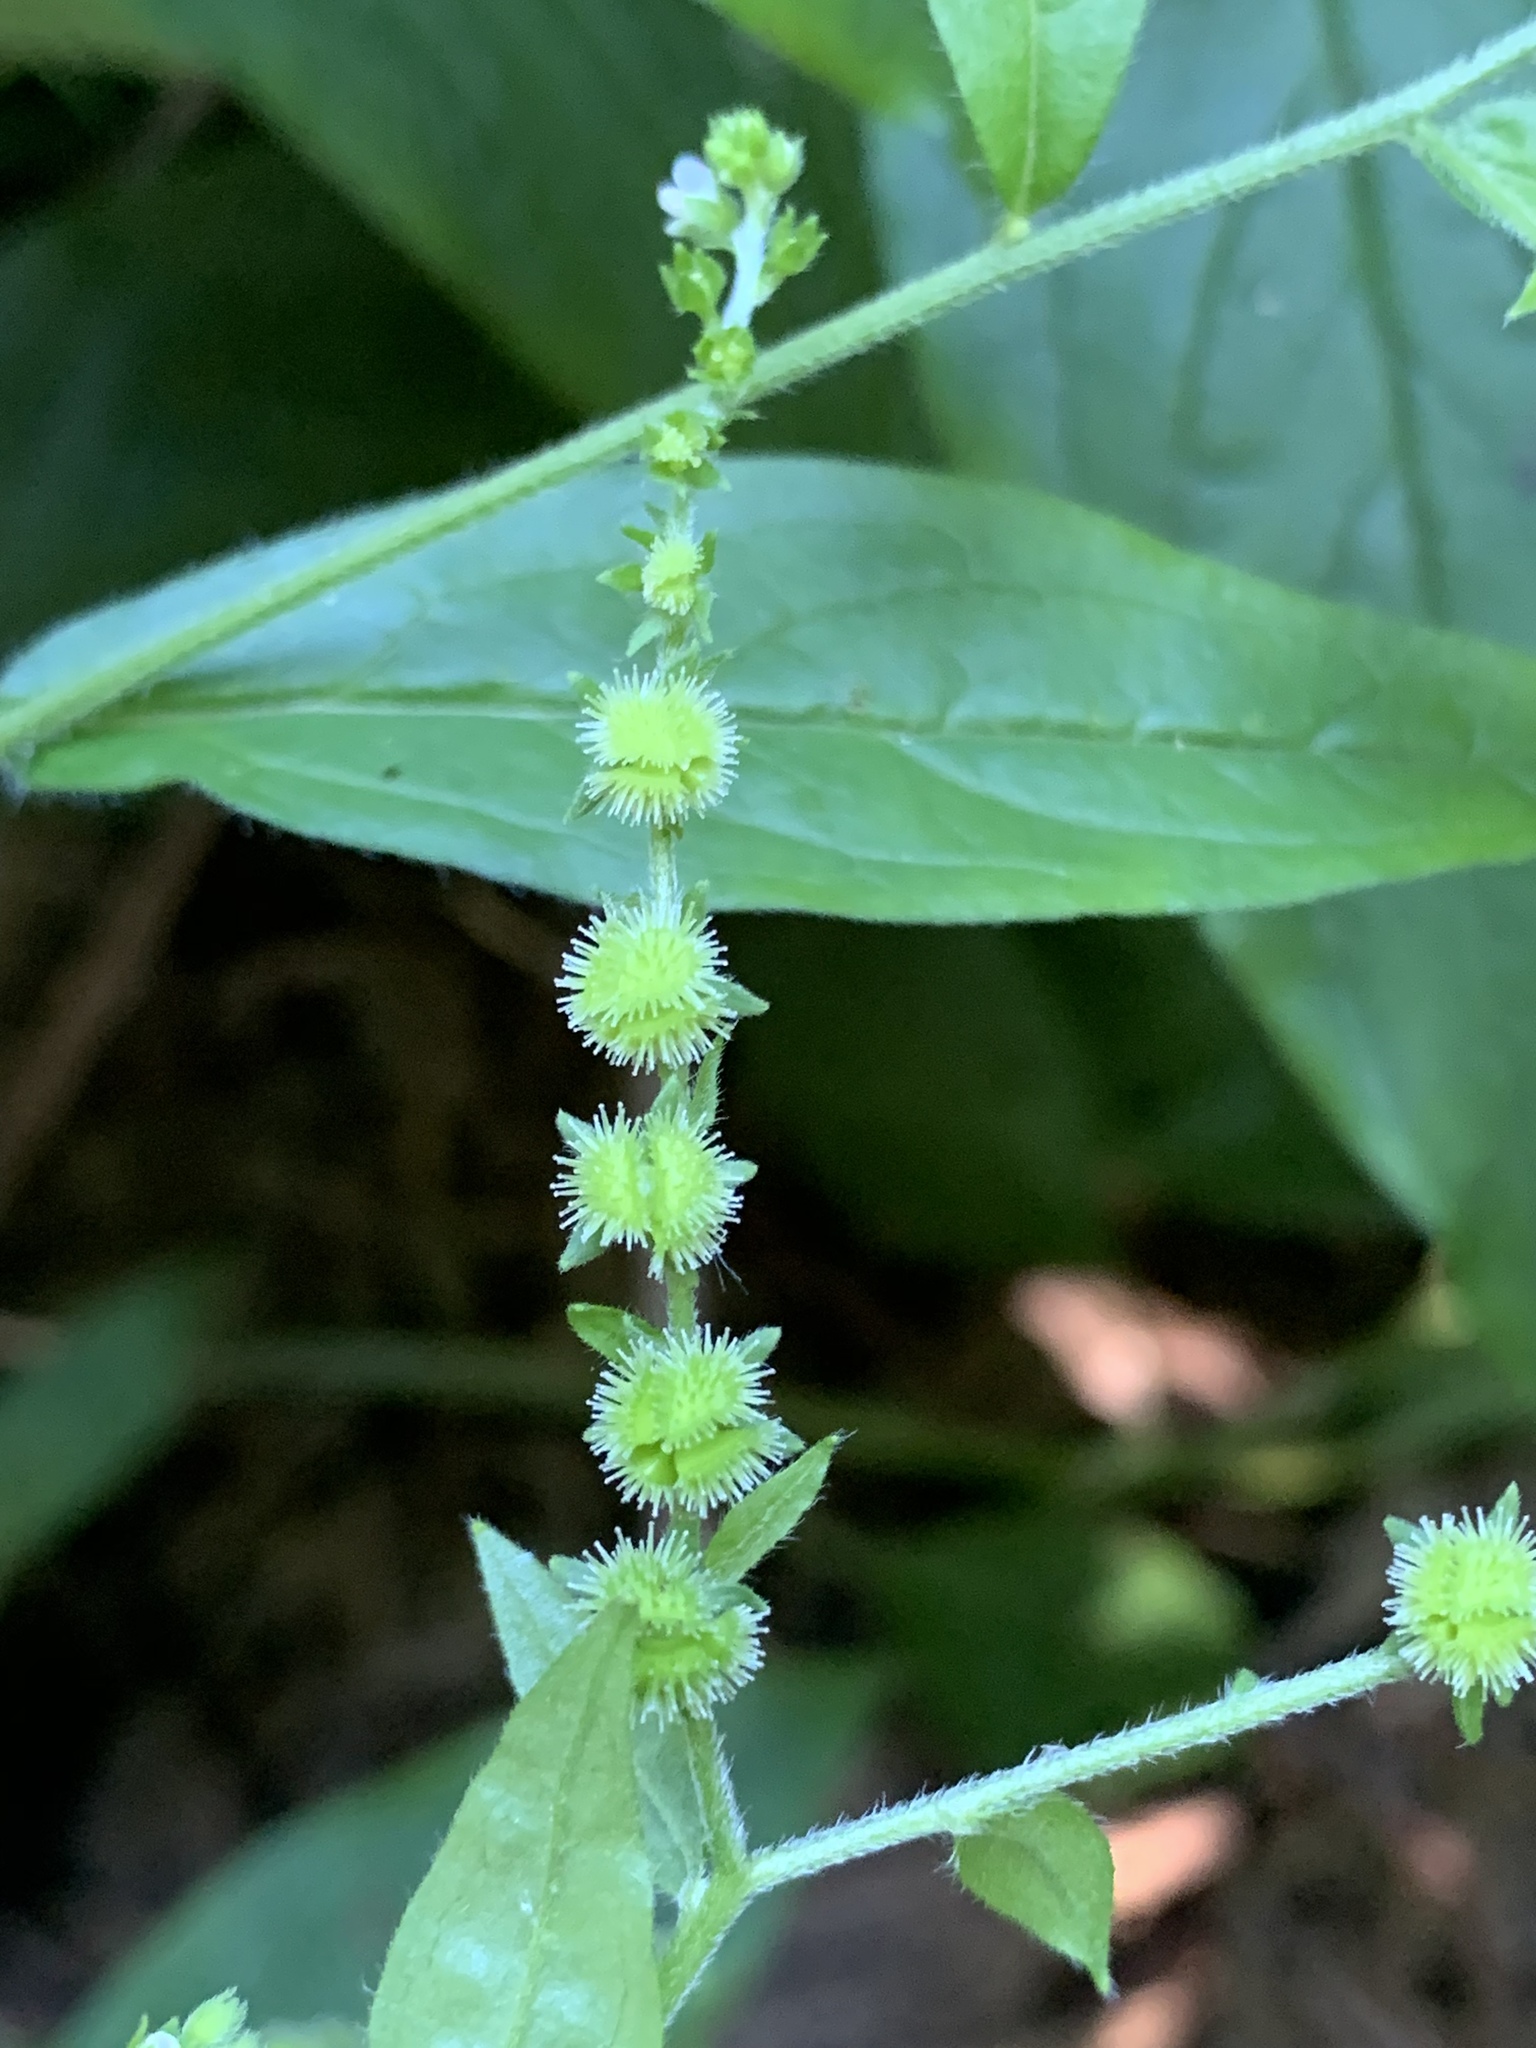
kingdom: Plantae
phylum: Tracheophyta
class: Magnoliopsida
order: Boraginales
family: Boraginaceae
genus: Hackelia
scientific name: Hackelia virginiana
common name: Beggar's-lice
